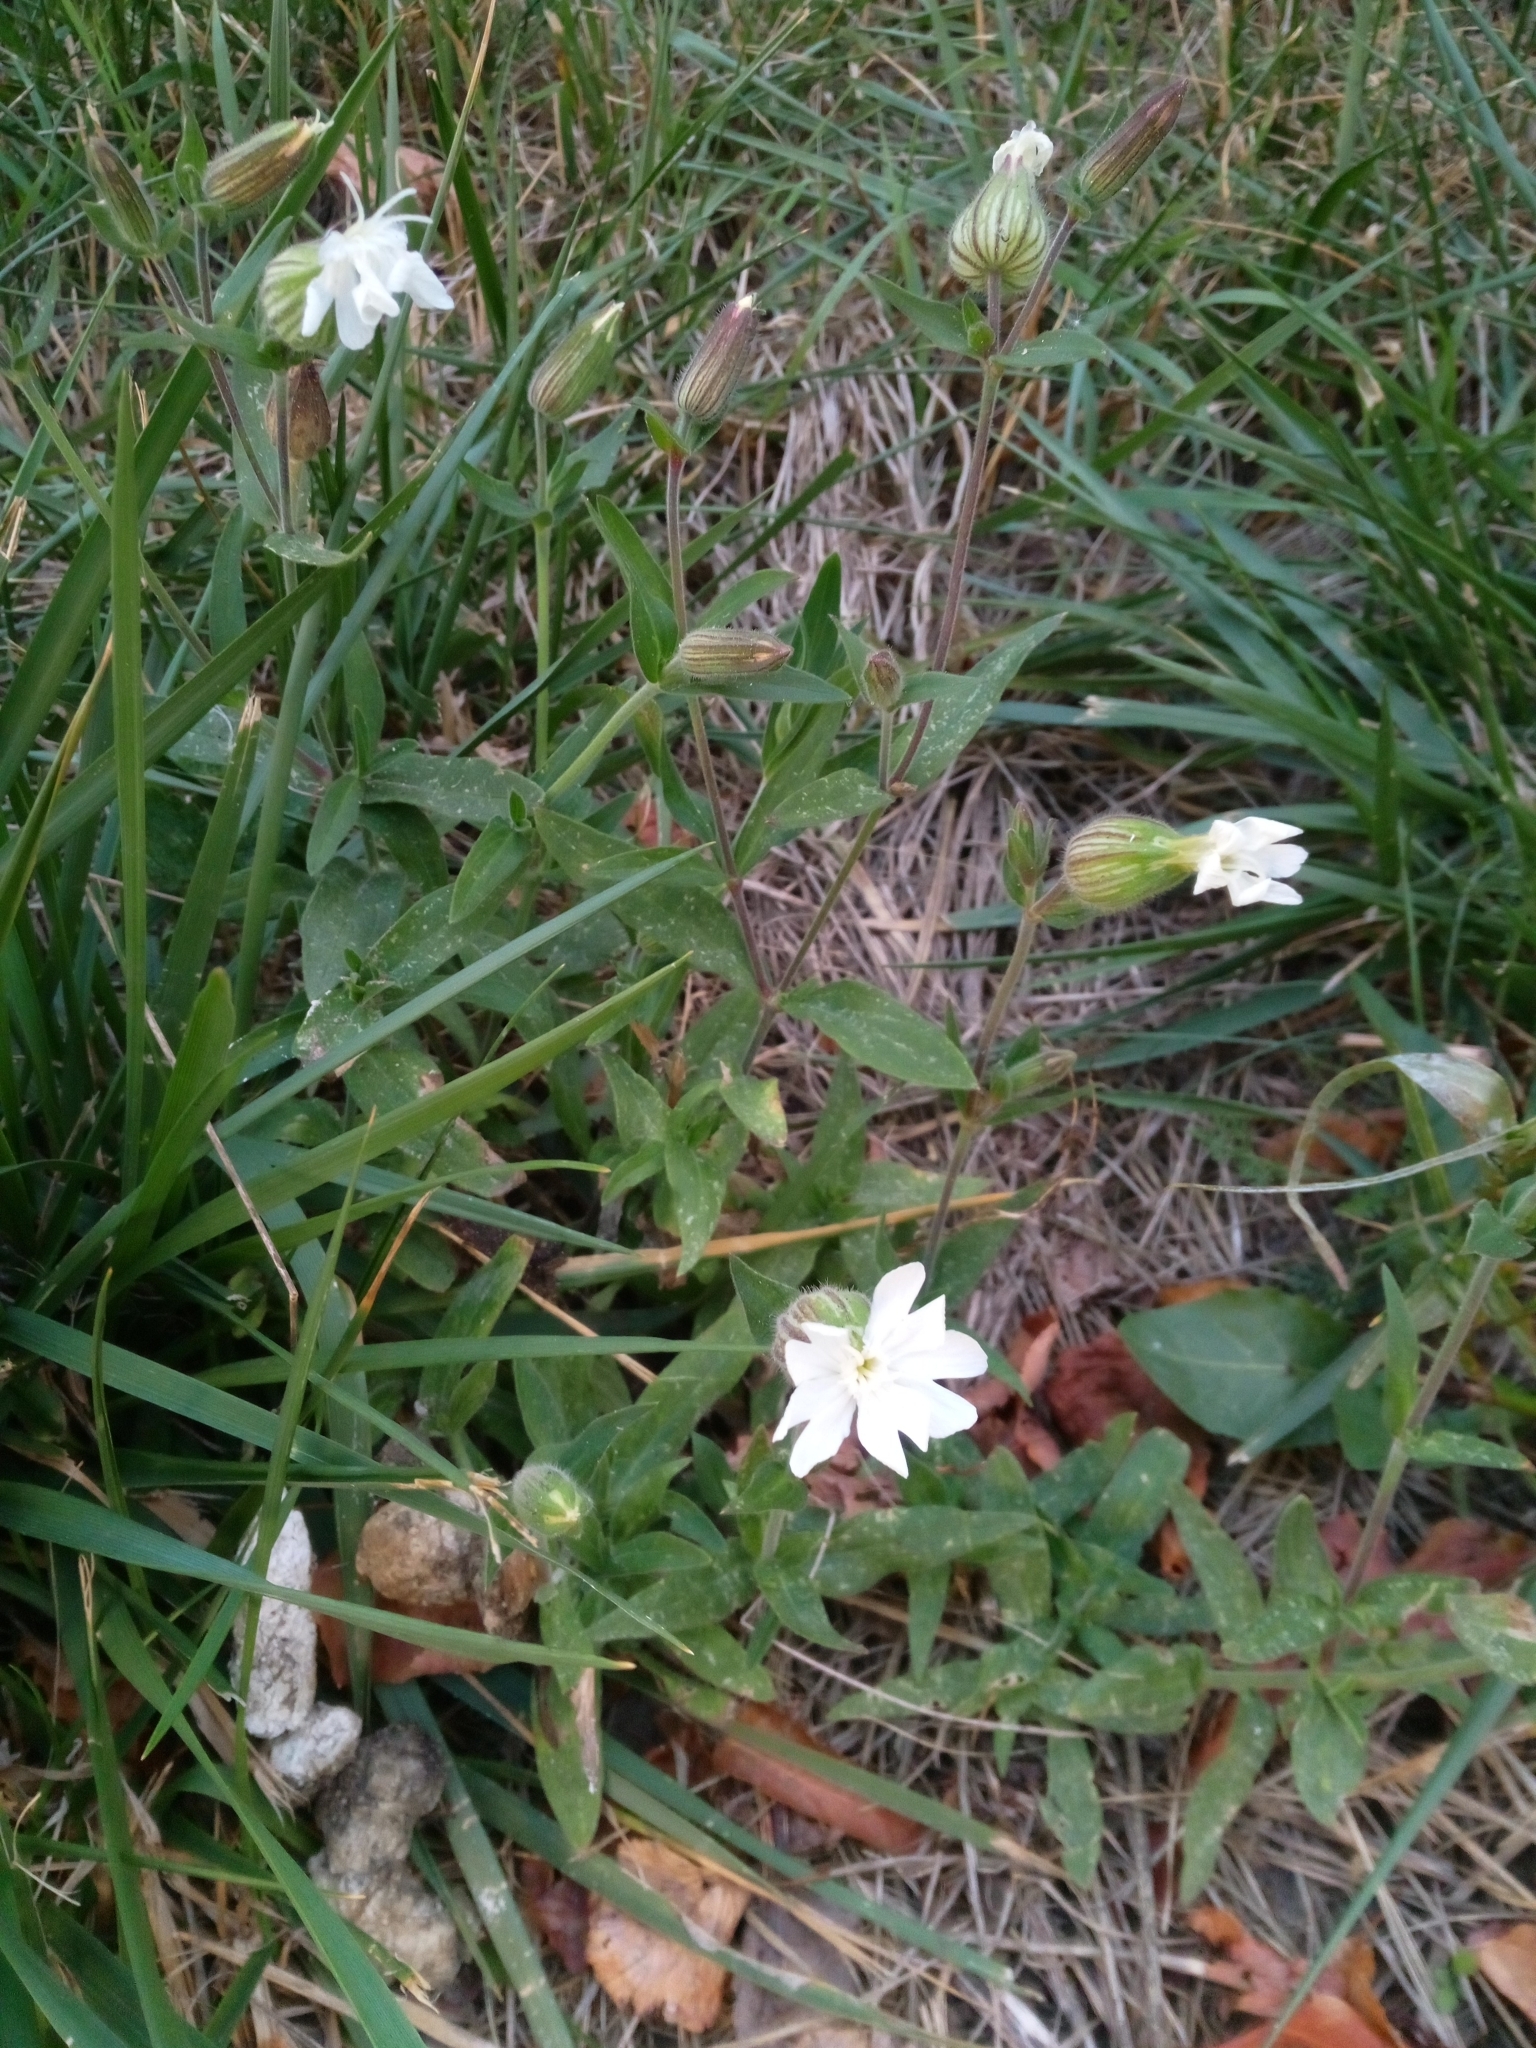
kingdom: Plantae
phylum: Tracheophyta
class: Magnoliopsida
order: Caryophyllales
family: Caryophyllaceae
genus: Silene
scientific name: Silene latifolia
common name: White campion
